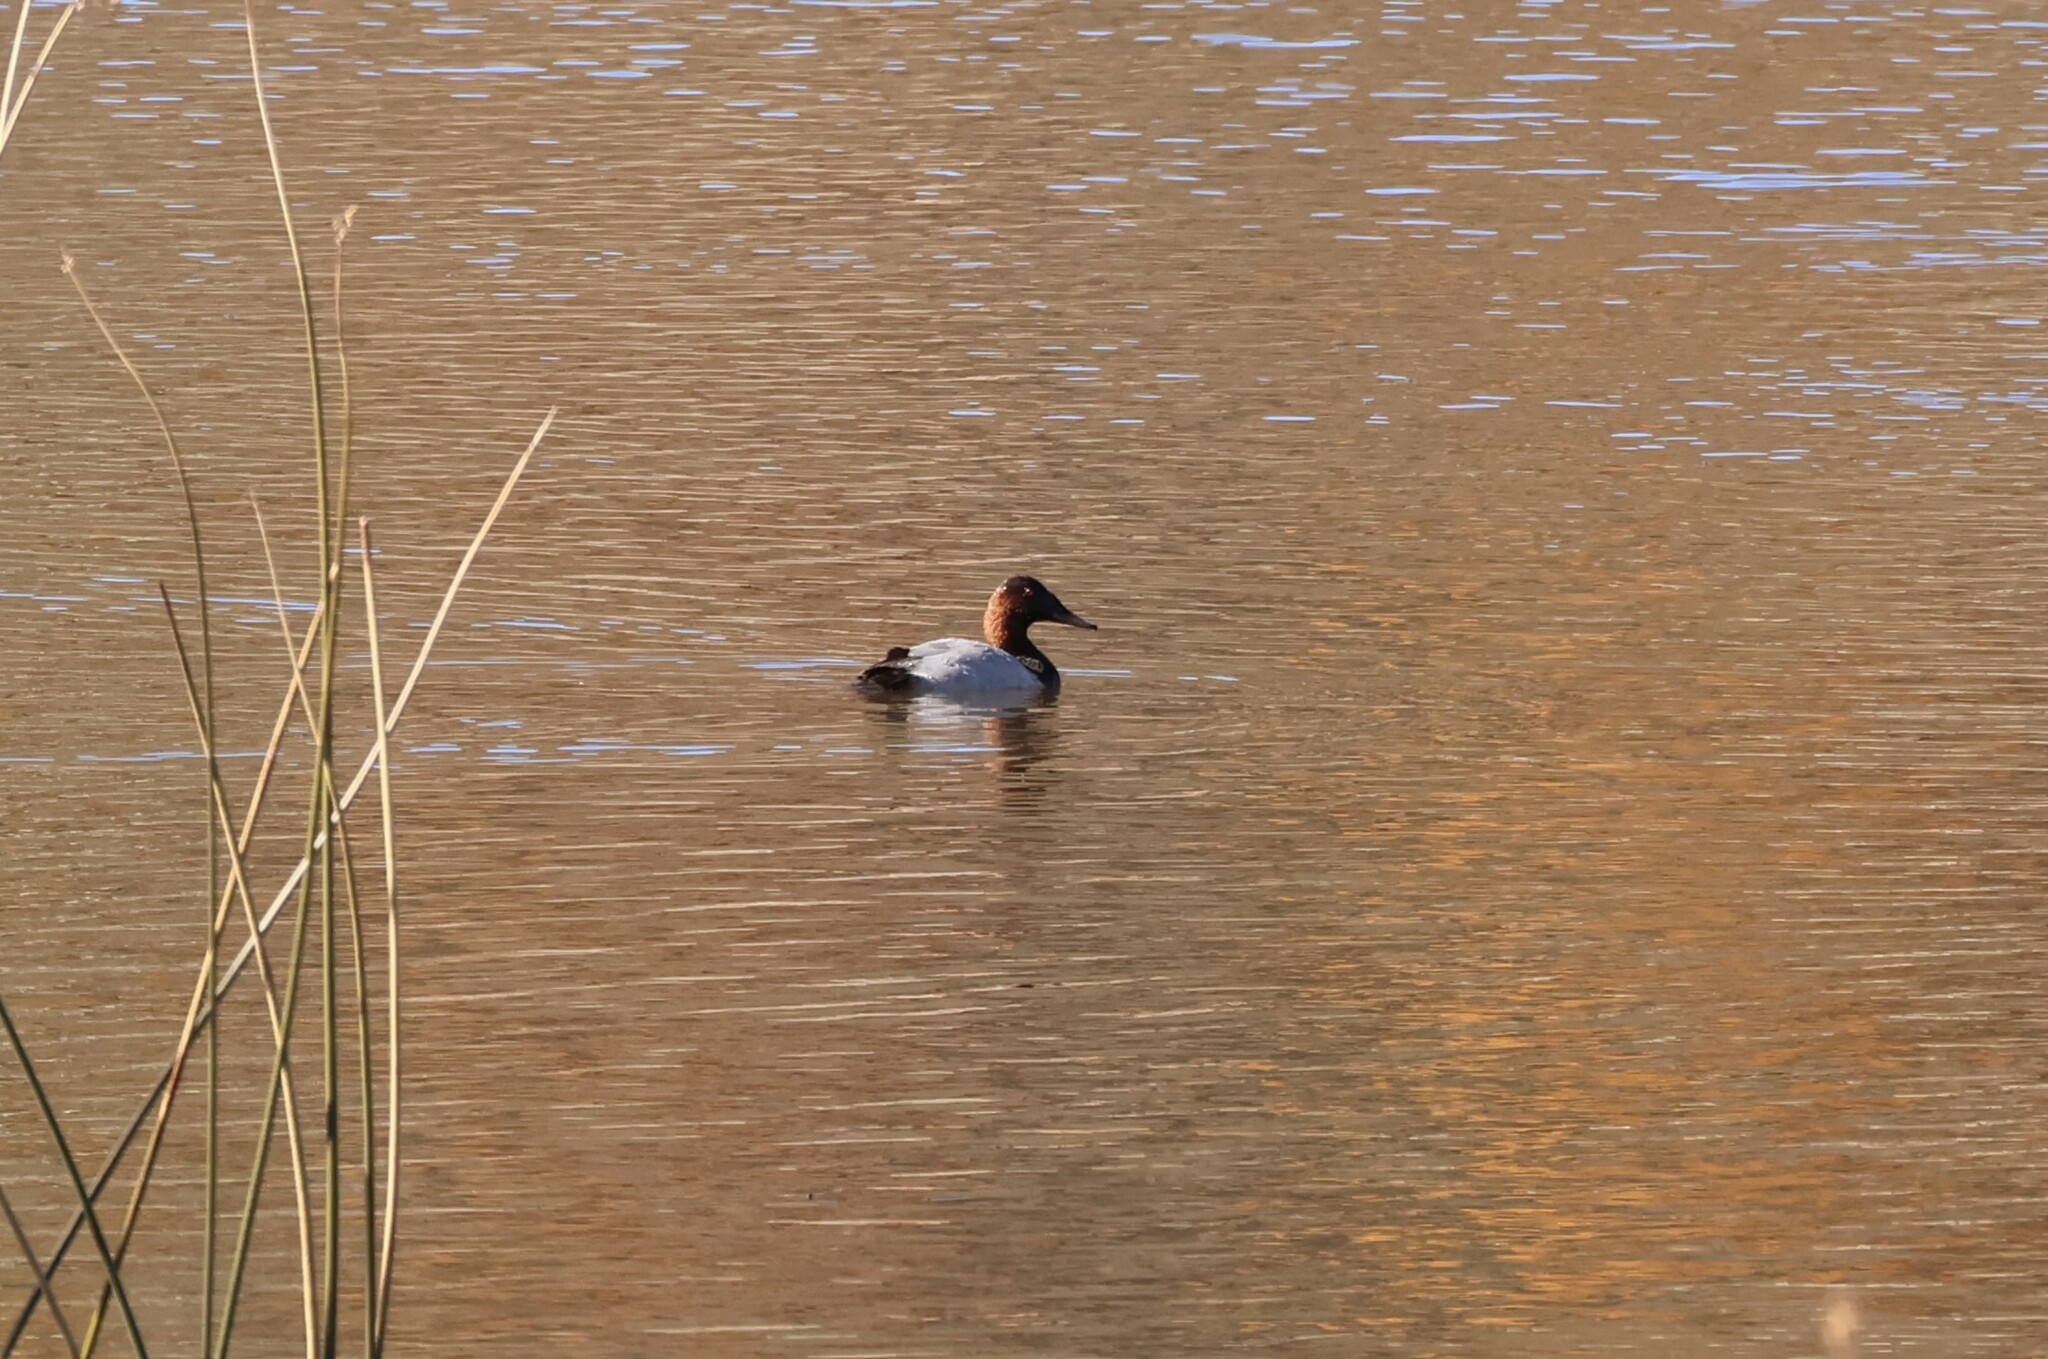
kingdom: Animalia
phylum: Chordata
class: Aves
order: Anseriformes
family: Anatidae
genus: Aythya
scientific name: Aythya valisineria
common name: Canvasback
